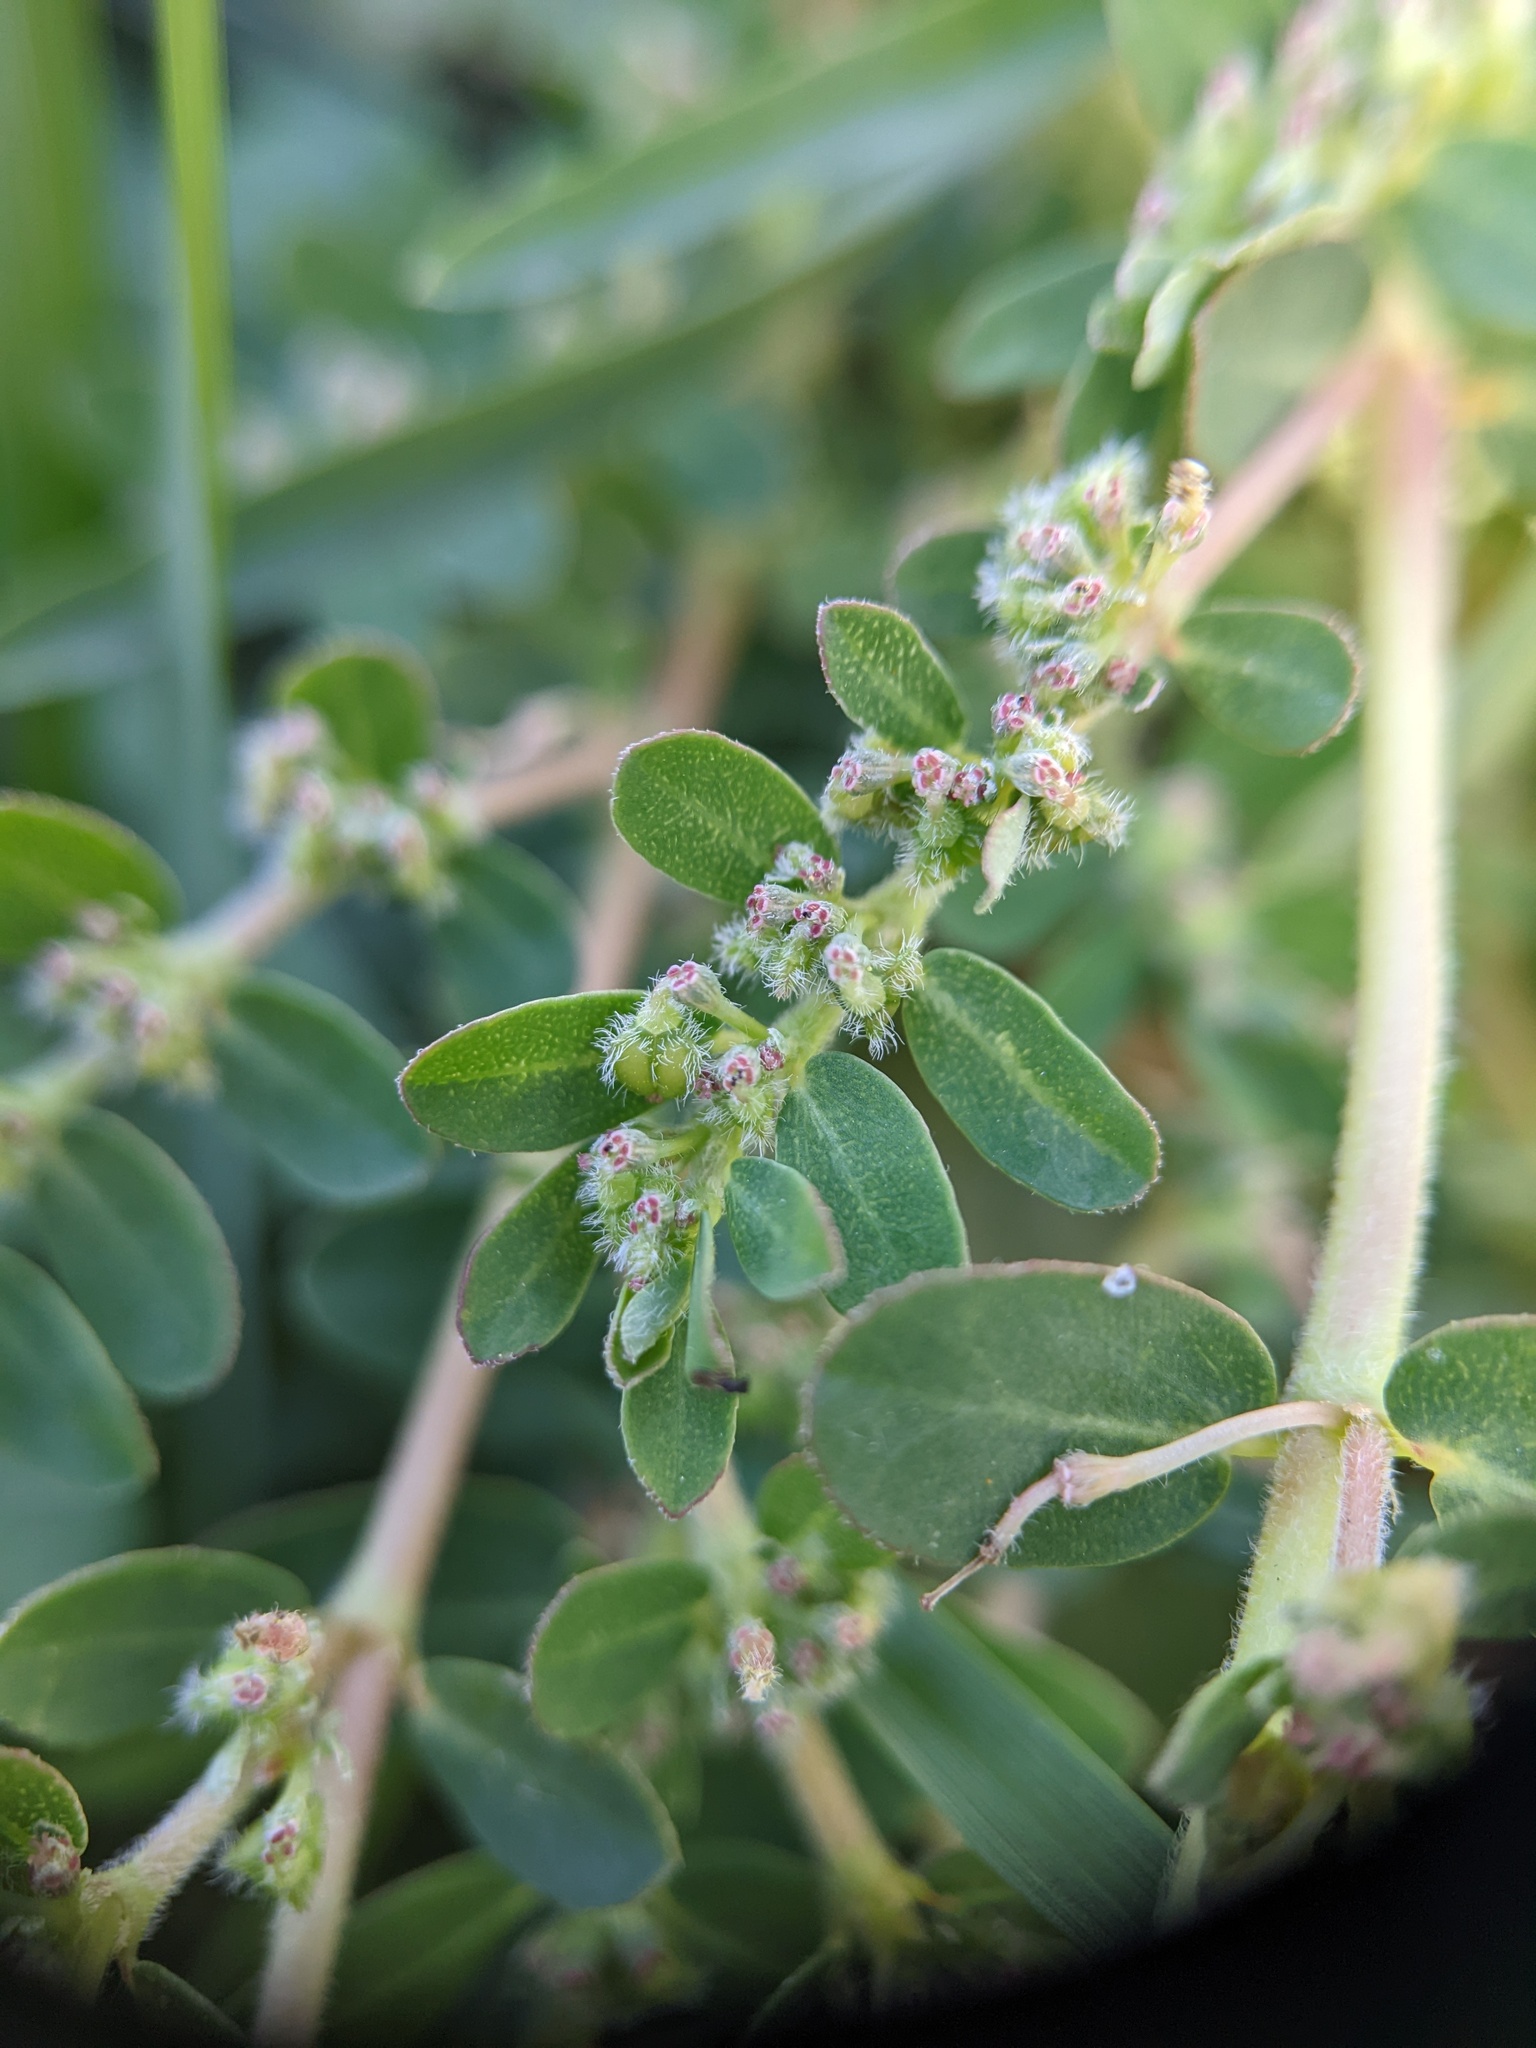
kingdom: Plantae
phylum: Tracheophyta
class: Magnoliopsida
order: Malpighiales
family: Euphorbiaceae
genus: Euphorbia
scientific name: Euphorbia prostrata
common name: Prostrate sandmat
